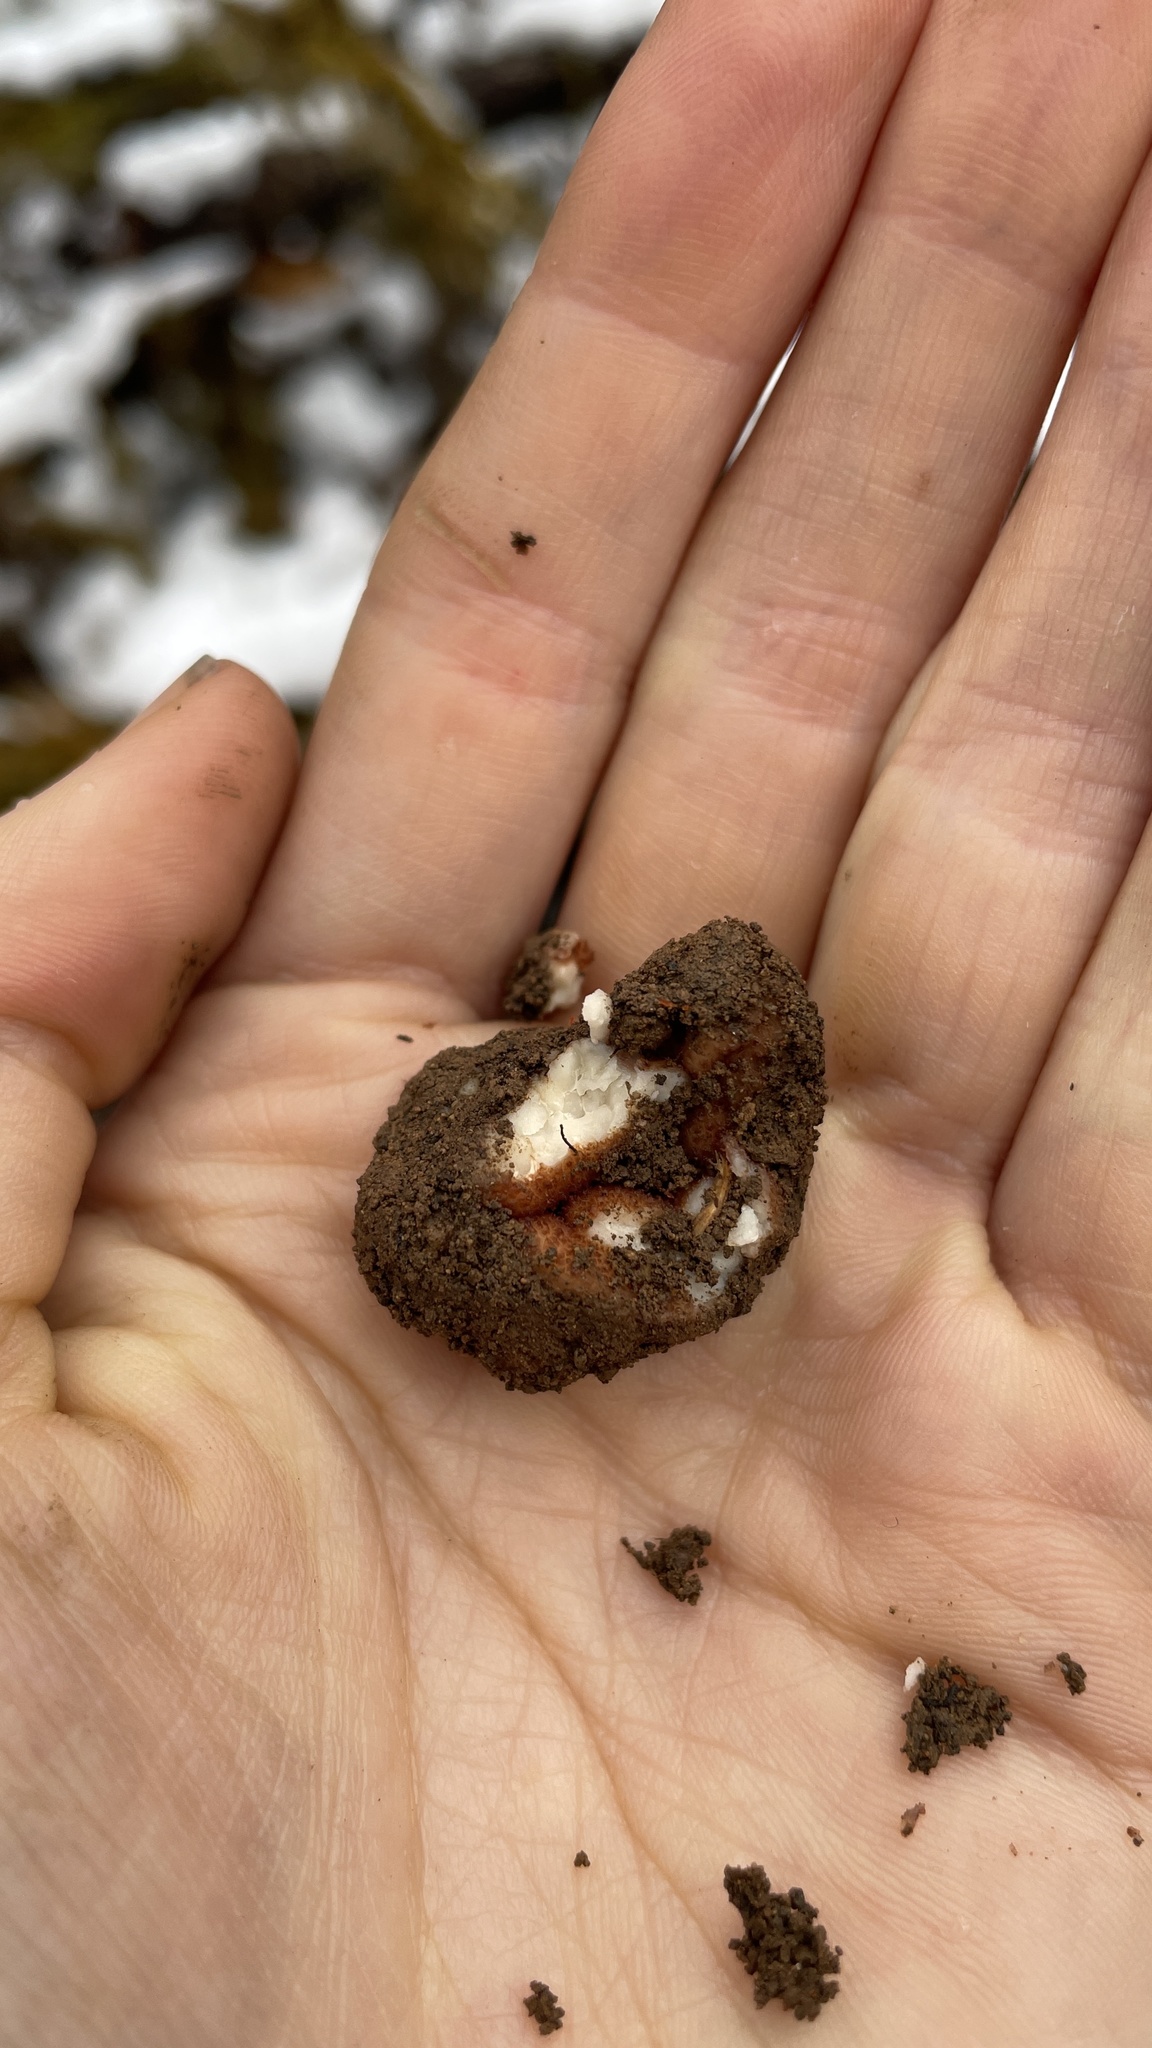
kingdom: Fungi
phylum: Ascomycota
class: Pezizomycetes
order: Pezizales
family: Helvellaceae
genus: Balsamia
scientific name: Balsamia magnata
